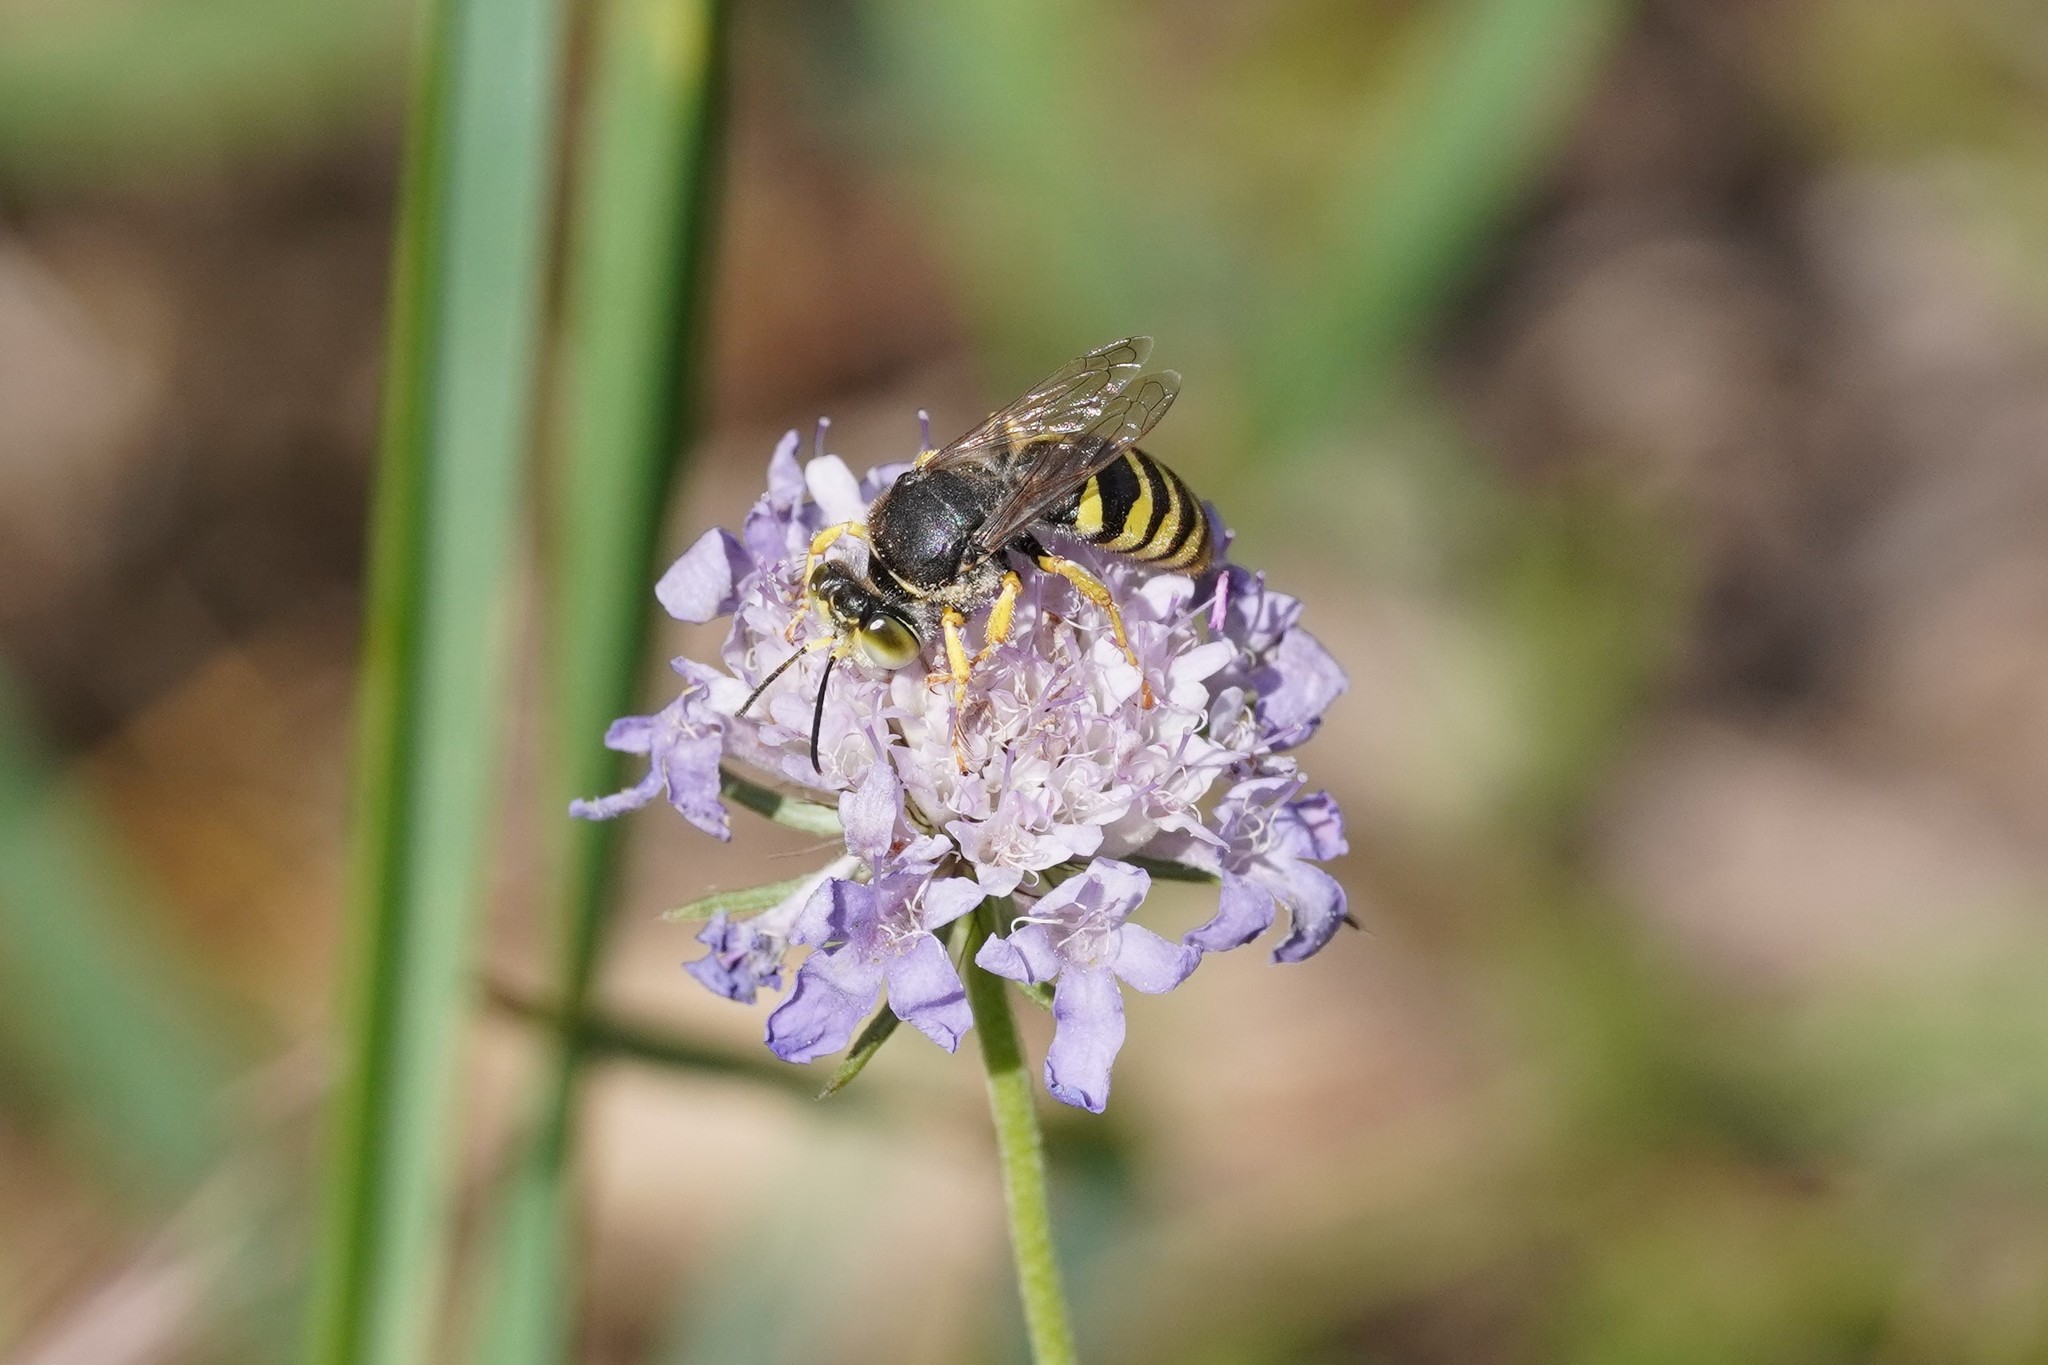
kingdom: Animalia
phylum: Arthropoda
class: Insecta
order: Hymenoptera
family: Crabronidae
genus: Bembix
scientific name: Bembix rostrata
